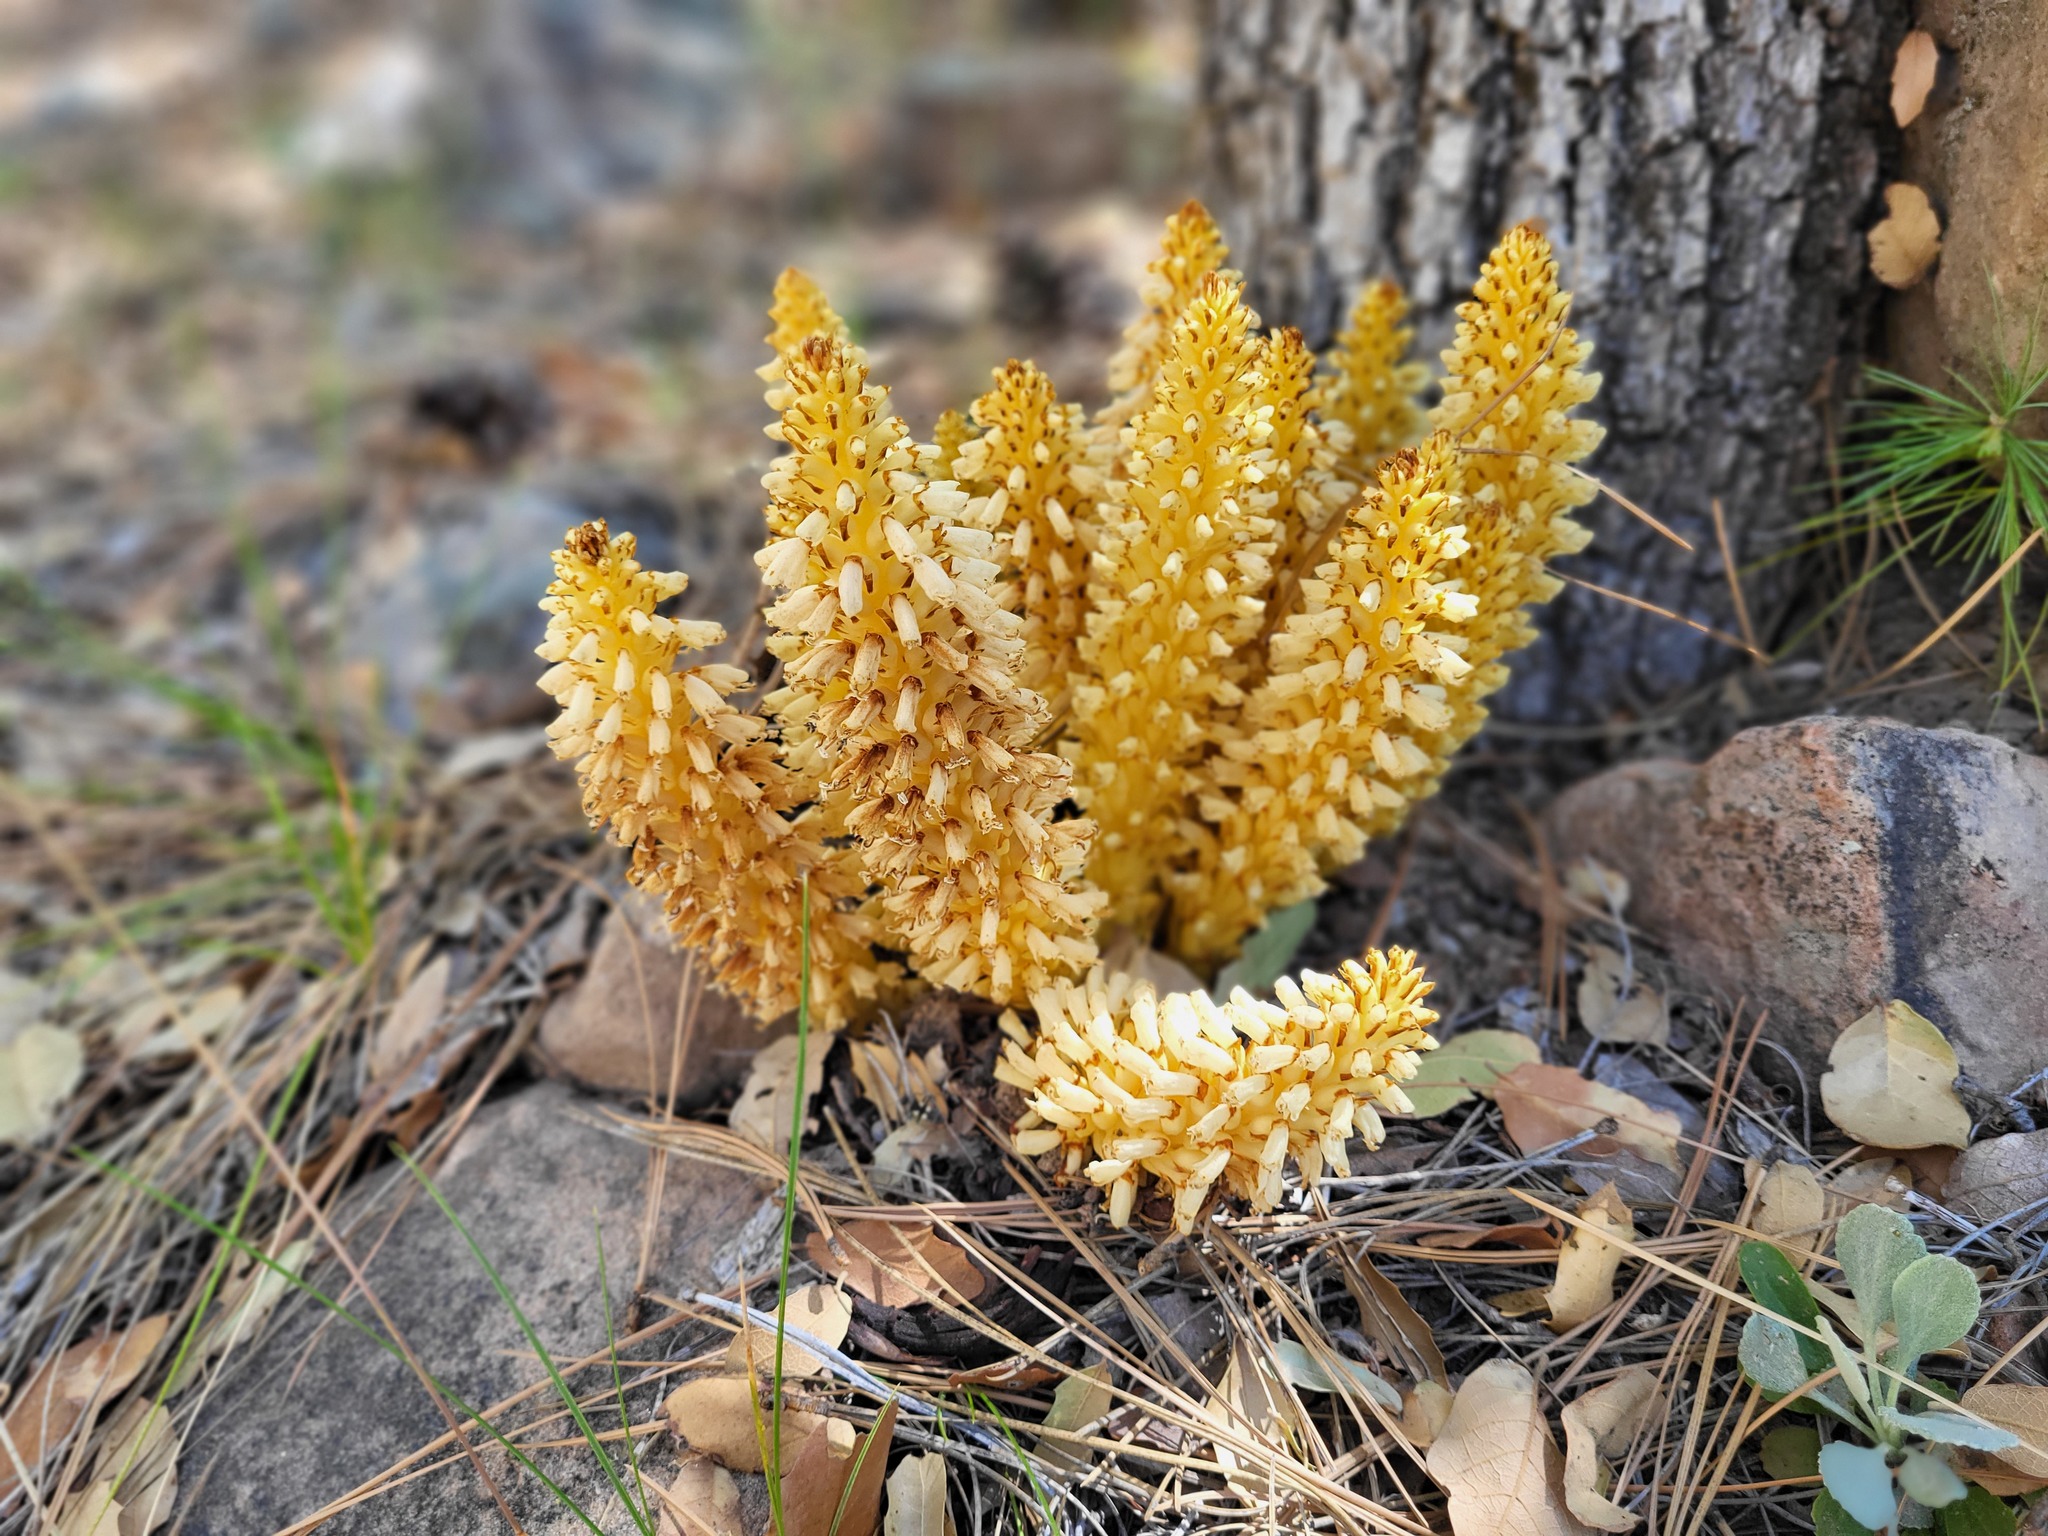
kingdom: Plantae
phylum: Tracheophyta
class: Magnoliopsida
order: Lamiales
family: Orobanchaceae
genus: Conopholis
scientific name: Conopholis alpina
